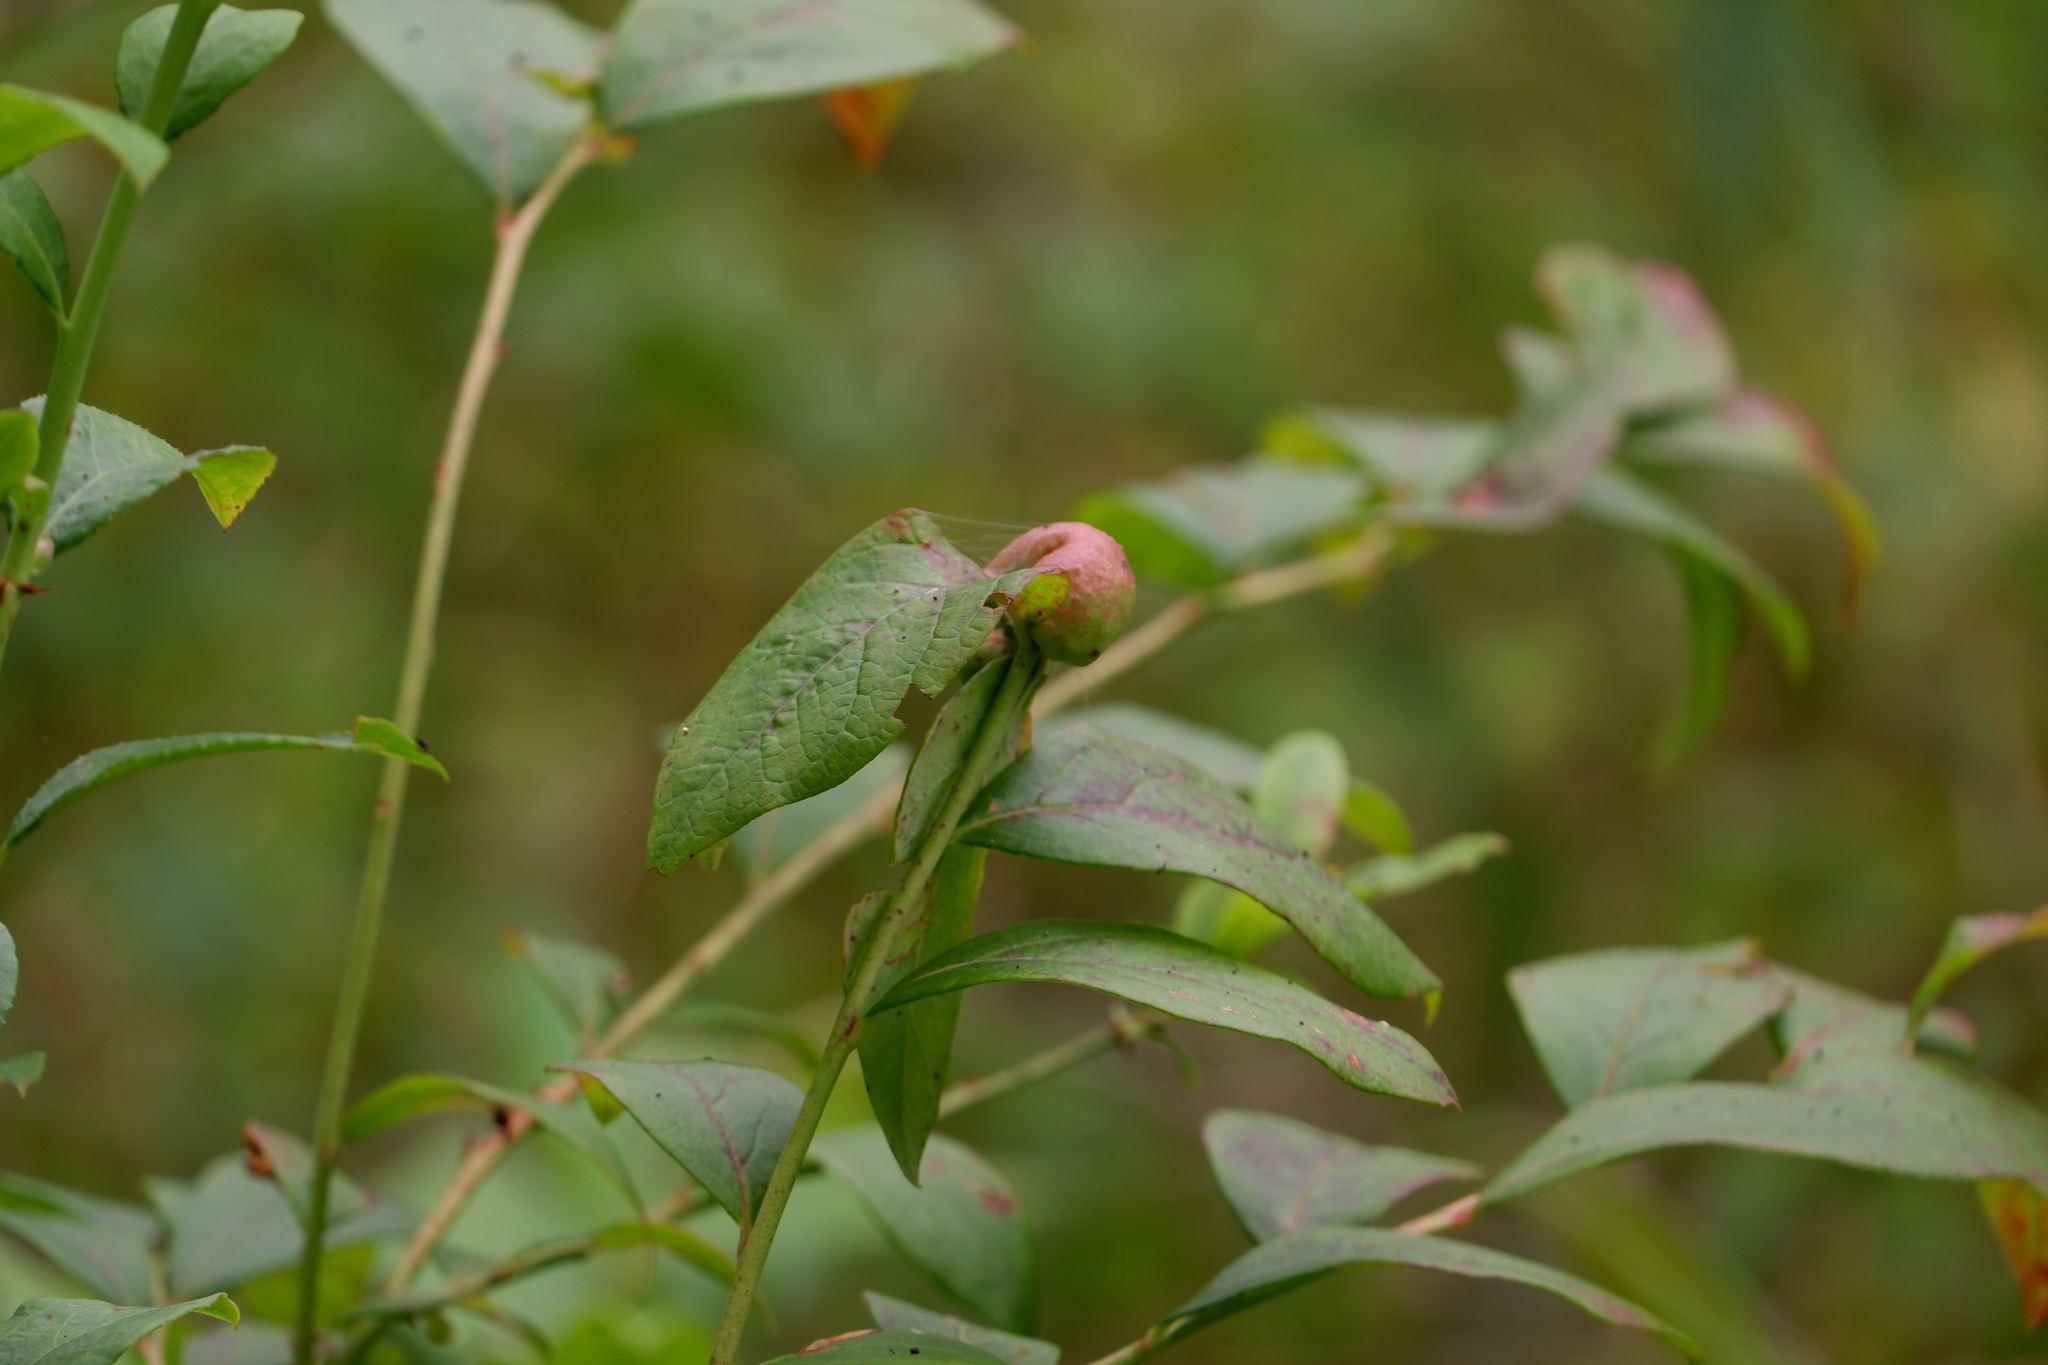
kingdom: Animalia
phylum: Arthropoda
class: Insecta
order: Hymenoptera
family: Pteromalidae
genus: Hemadas
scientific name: Hemadas nubilipennis
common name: Blueberry stem gall wasp
